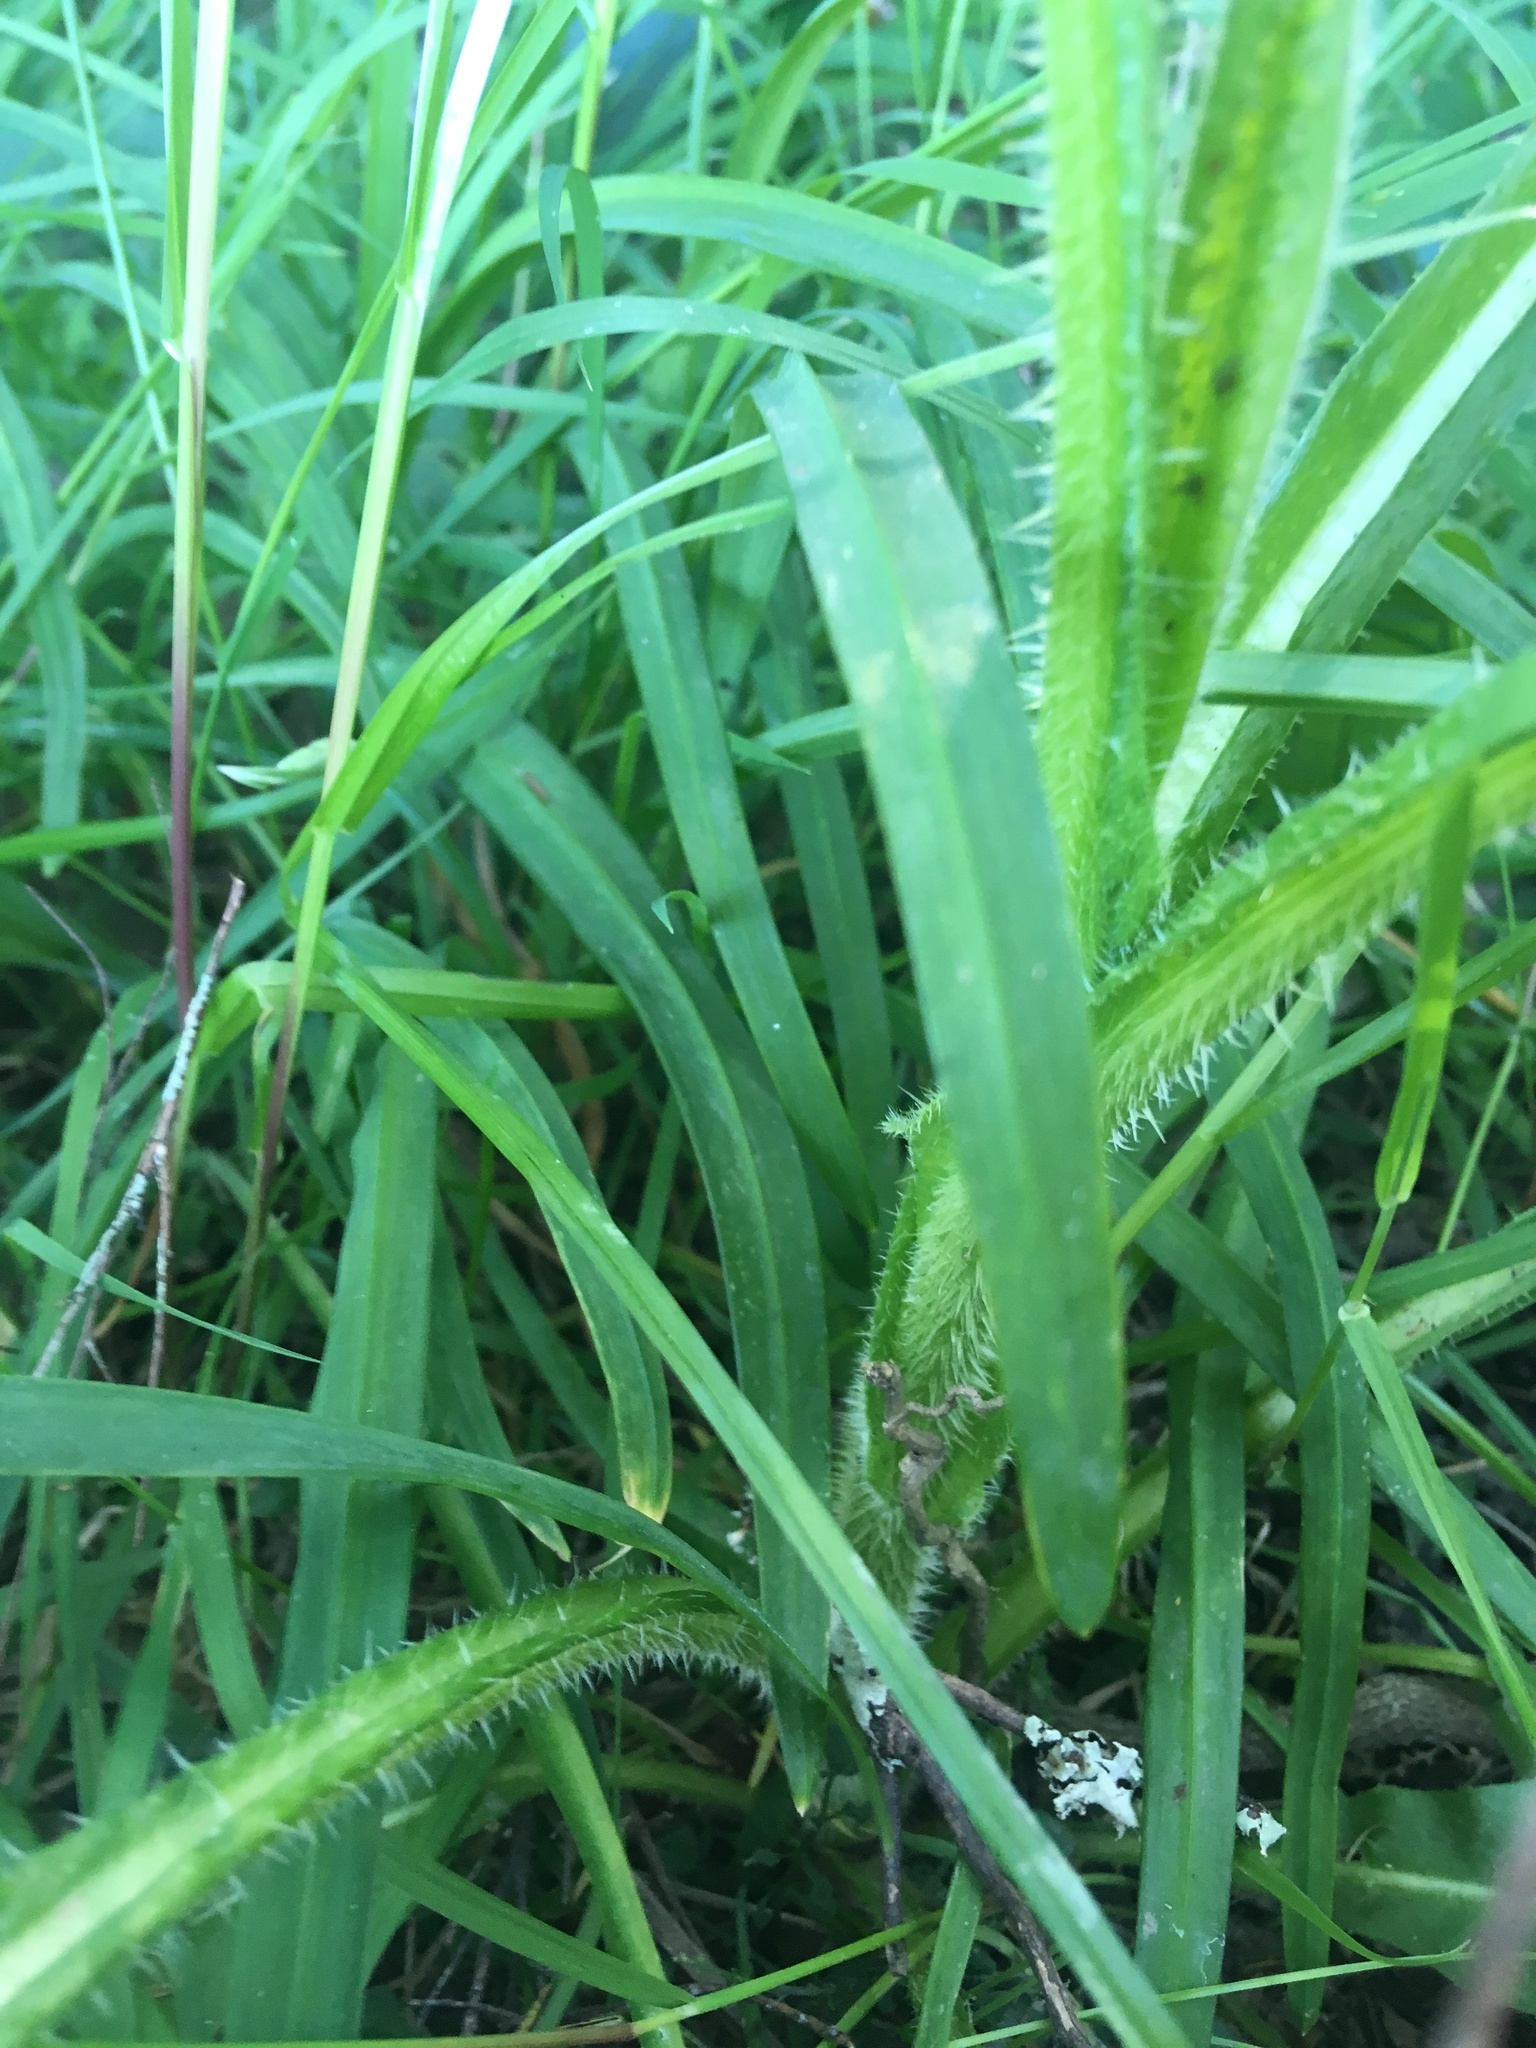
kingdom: Plantae
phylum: Tracheophyta
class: Magnoliopsida
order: Asterales
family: Asteraceae
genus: Helminthotheca
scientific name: Helminthotheca echioides
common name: Ox-tongue
